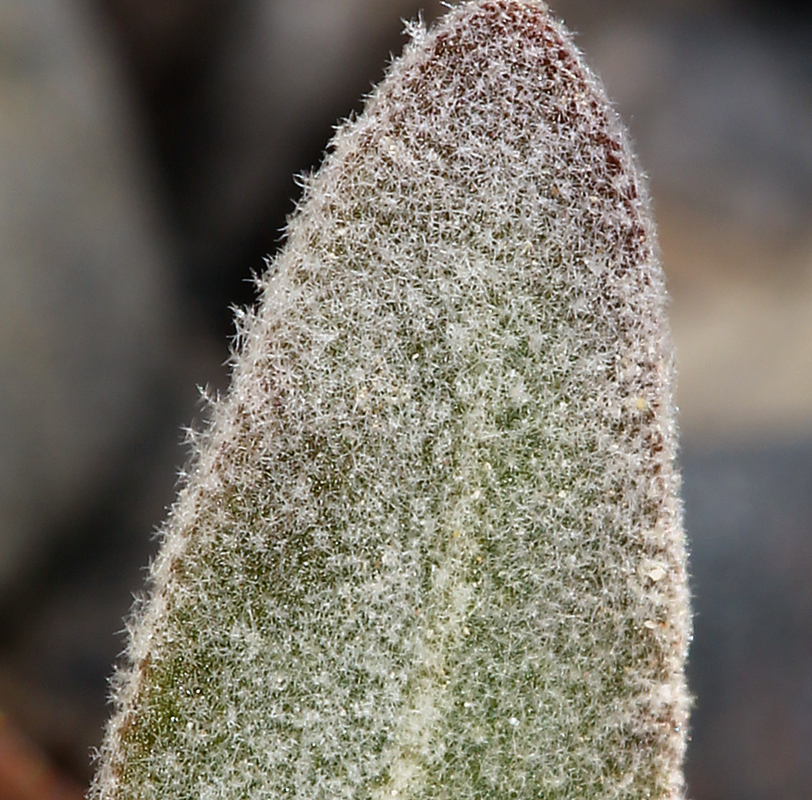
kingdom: Plantae
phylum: Tracheophyta
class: Magnoliopsida
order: Caryophyllales
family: Amaranthaceae
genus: Tidestromia
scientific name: Tidestromia suffruticosa
